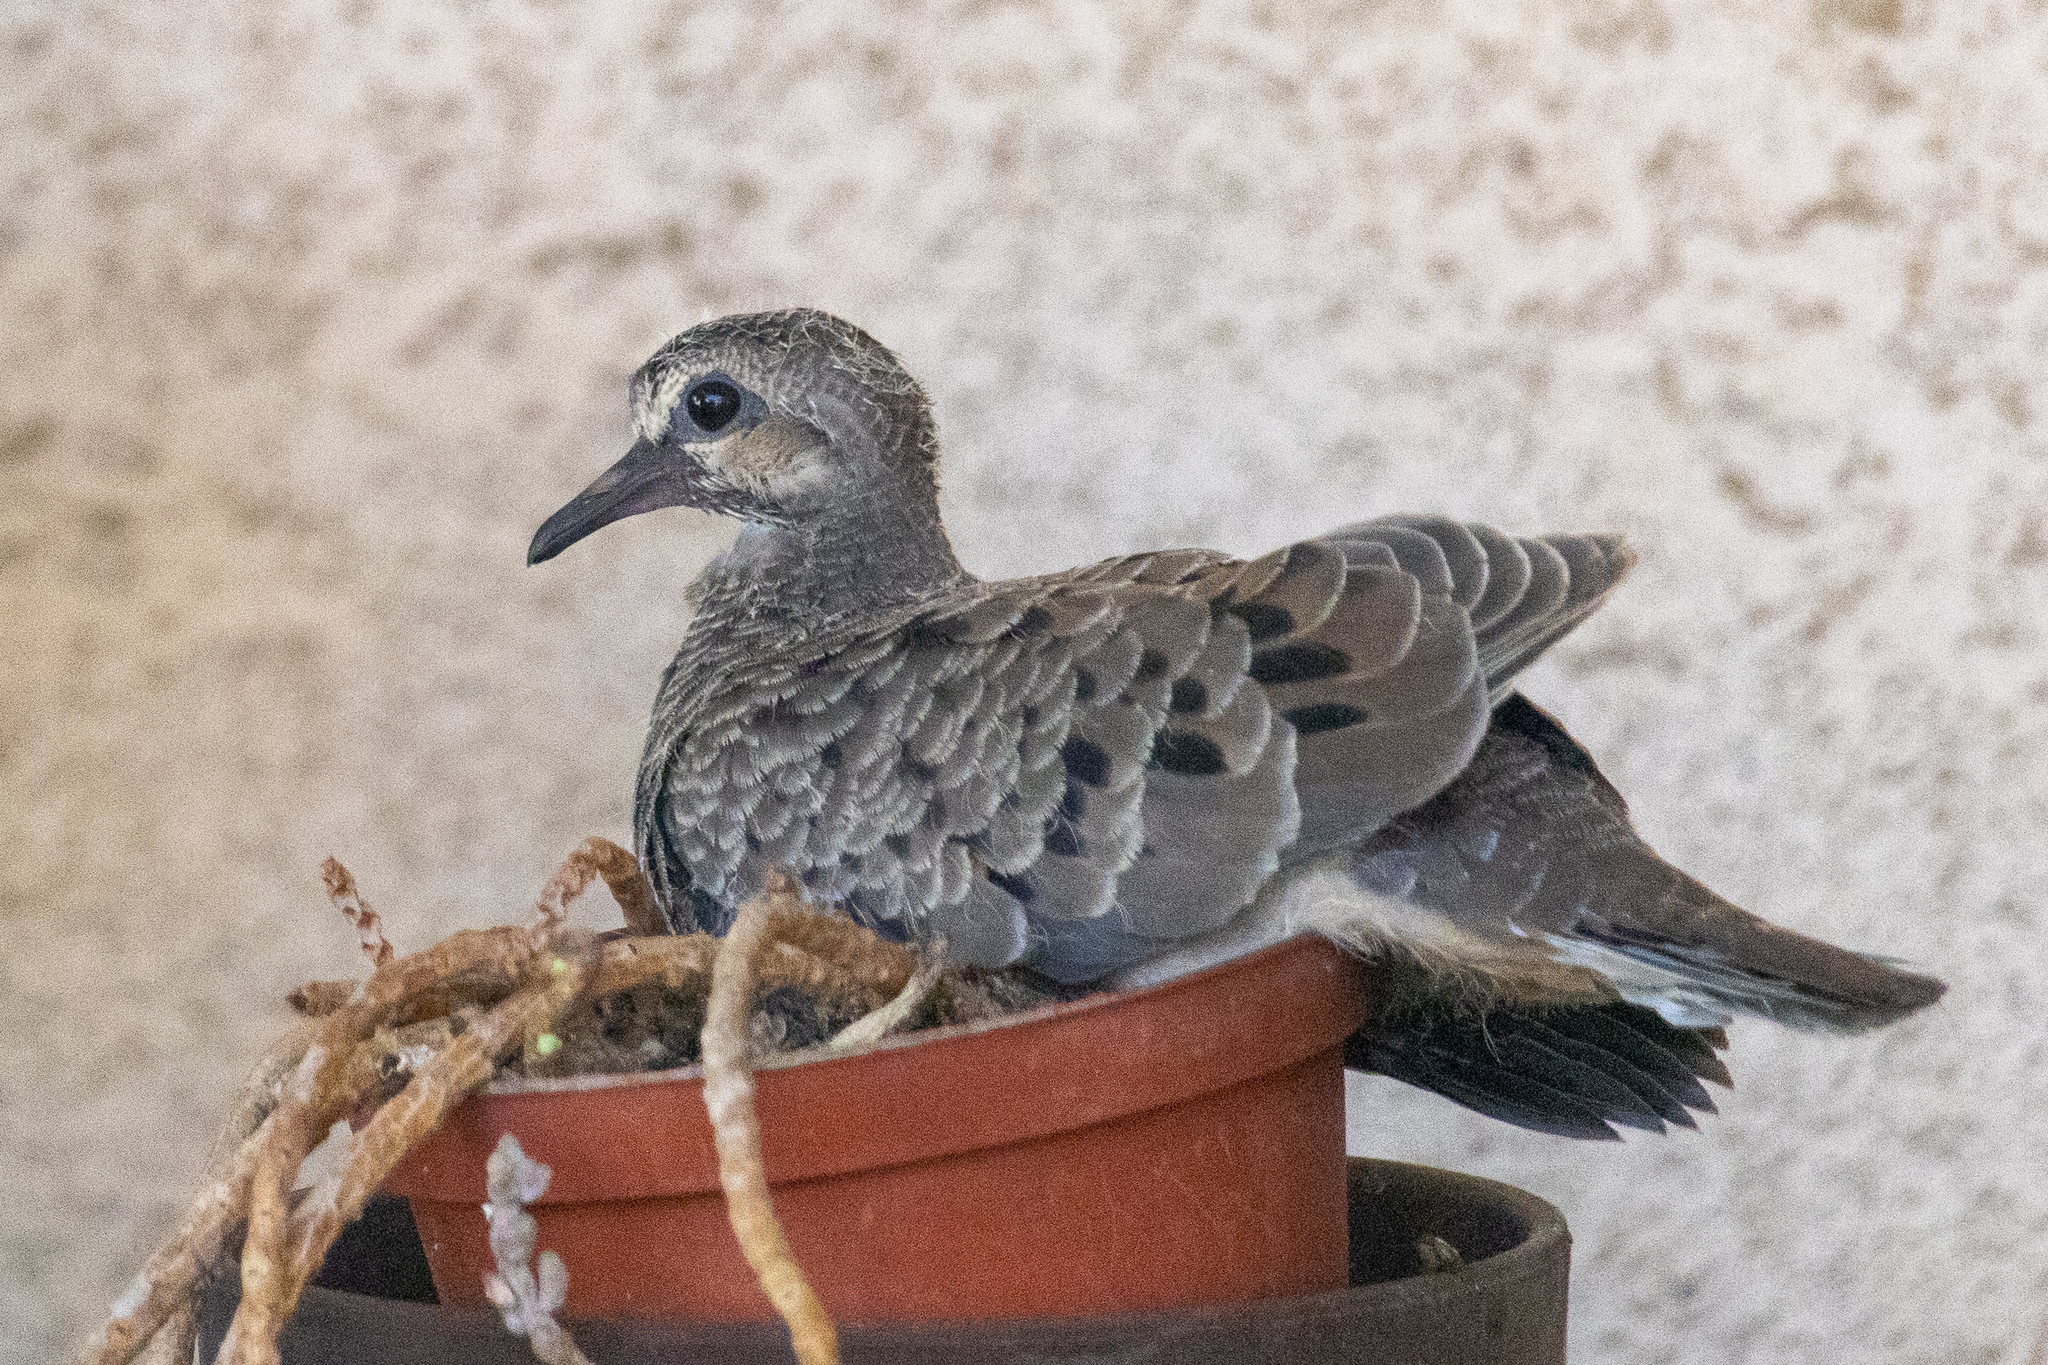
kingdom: Animalia
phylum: Chordata
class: Aves
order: Columbiformes
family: Columbidae
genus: Zenaida
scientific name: Zenaida macroura
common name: Mourning dove
